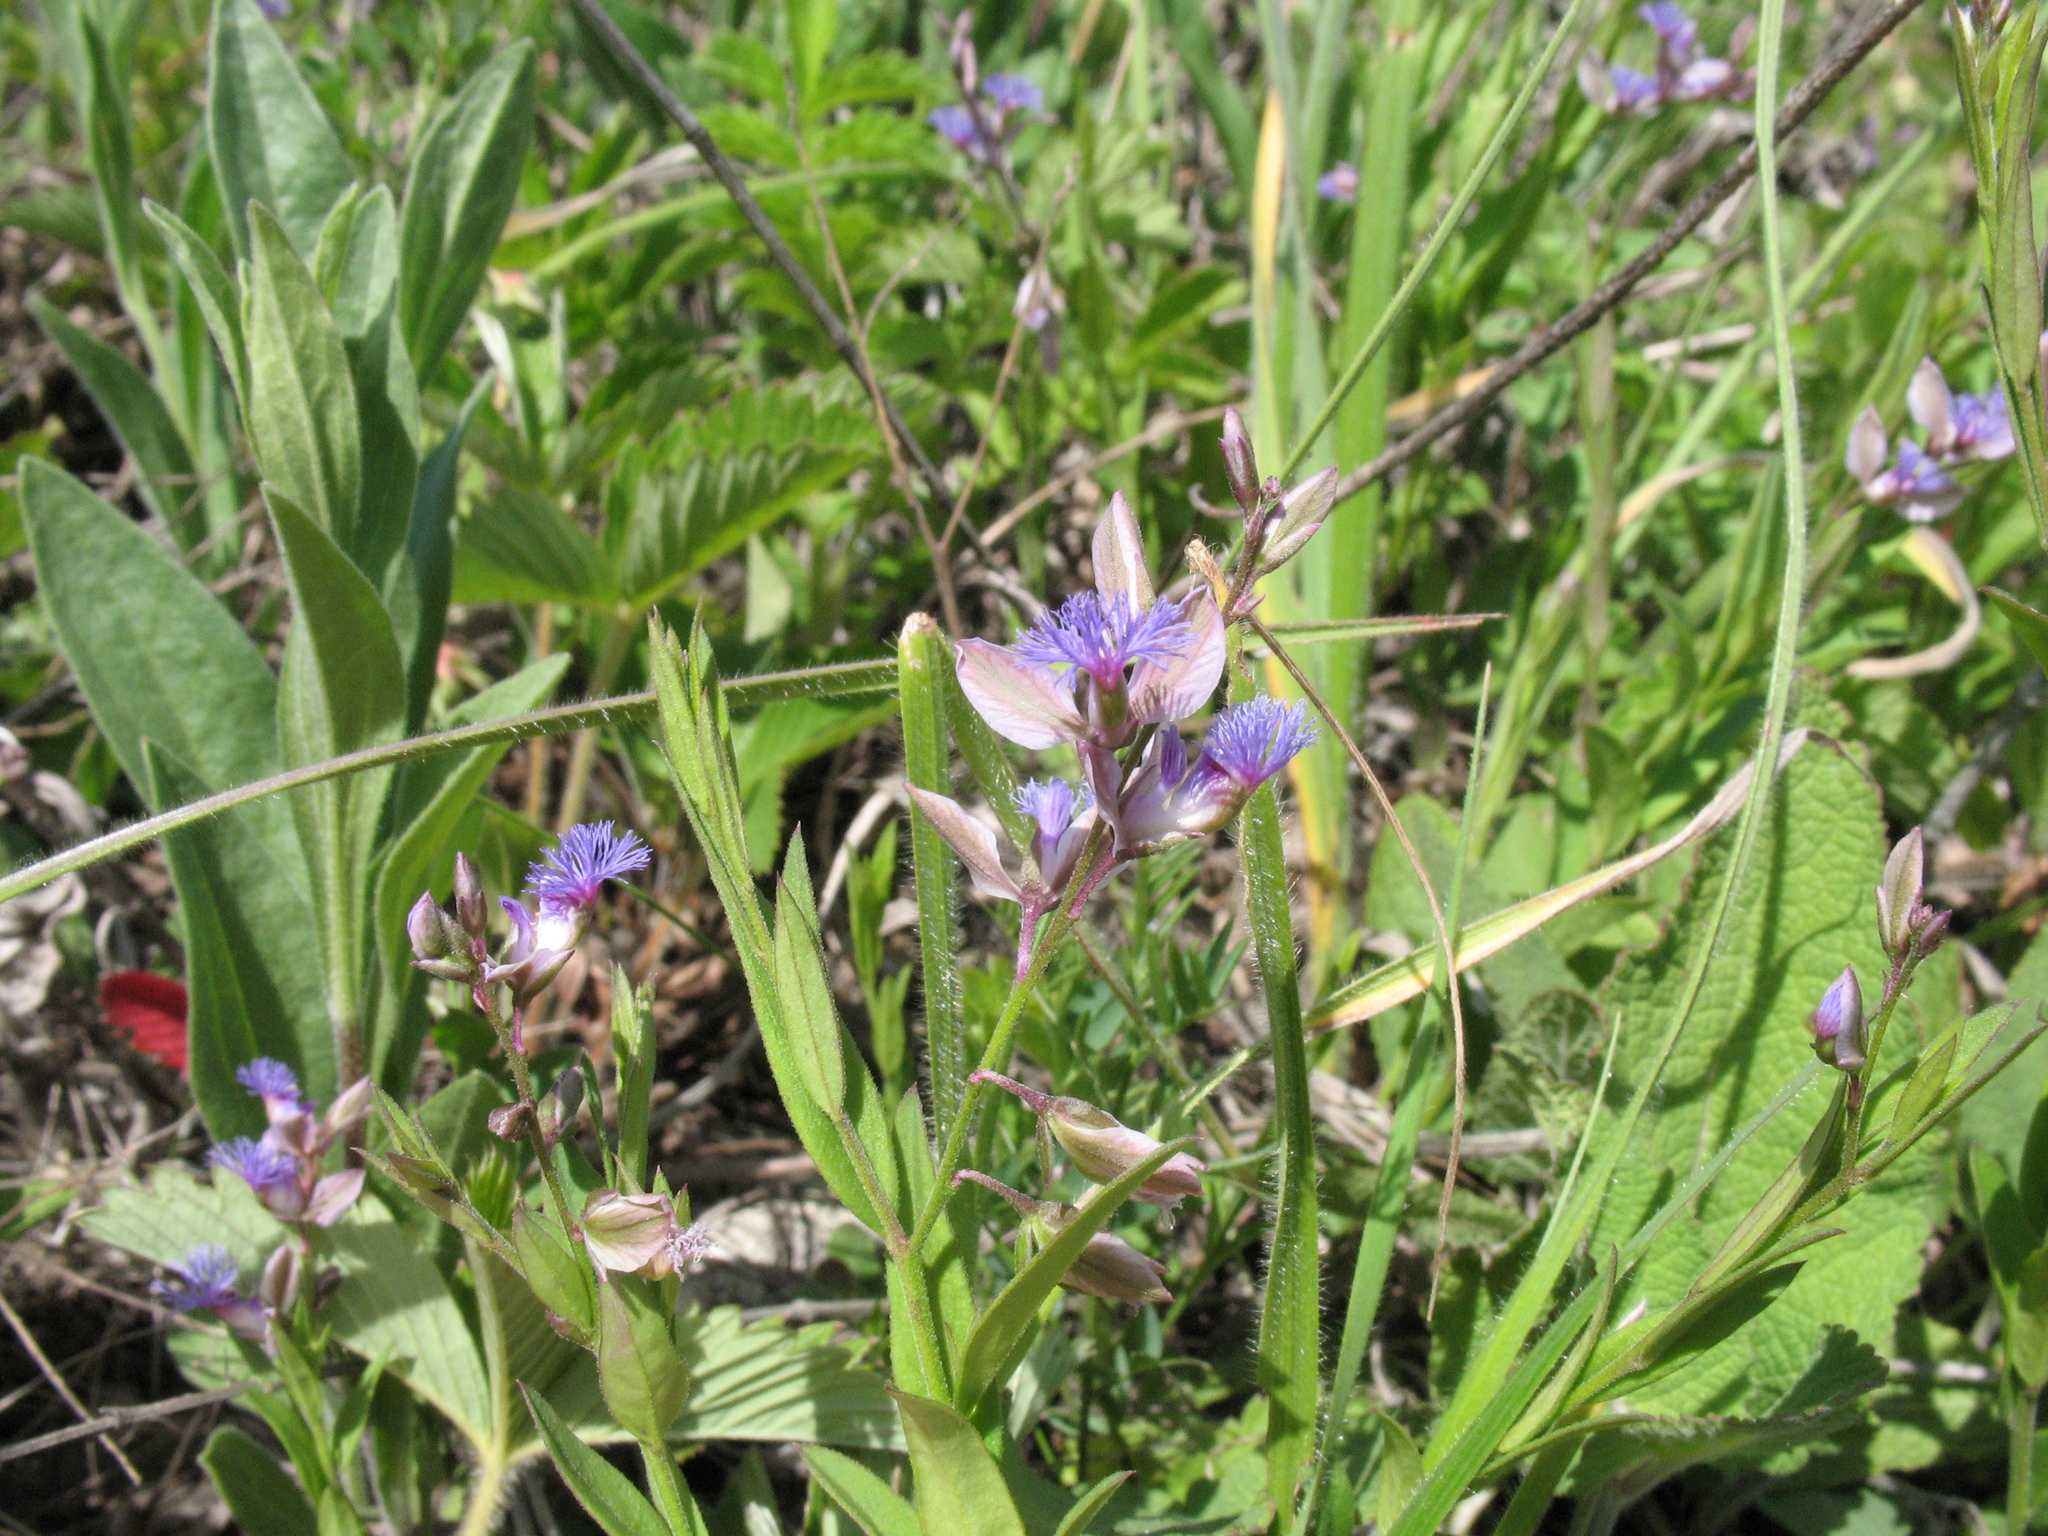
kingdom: Plantae
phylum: Tracheophyta
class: Magnoliopsida
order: Fabales
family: Polygalaceae
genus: Polygala
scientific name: Polygala sibirica
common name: Siberian polygala
